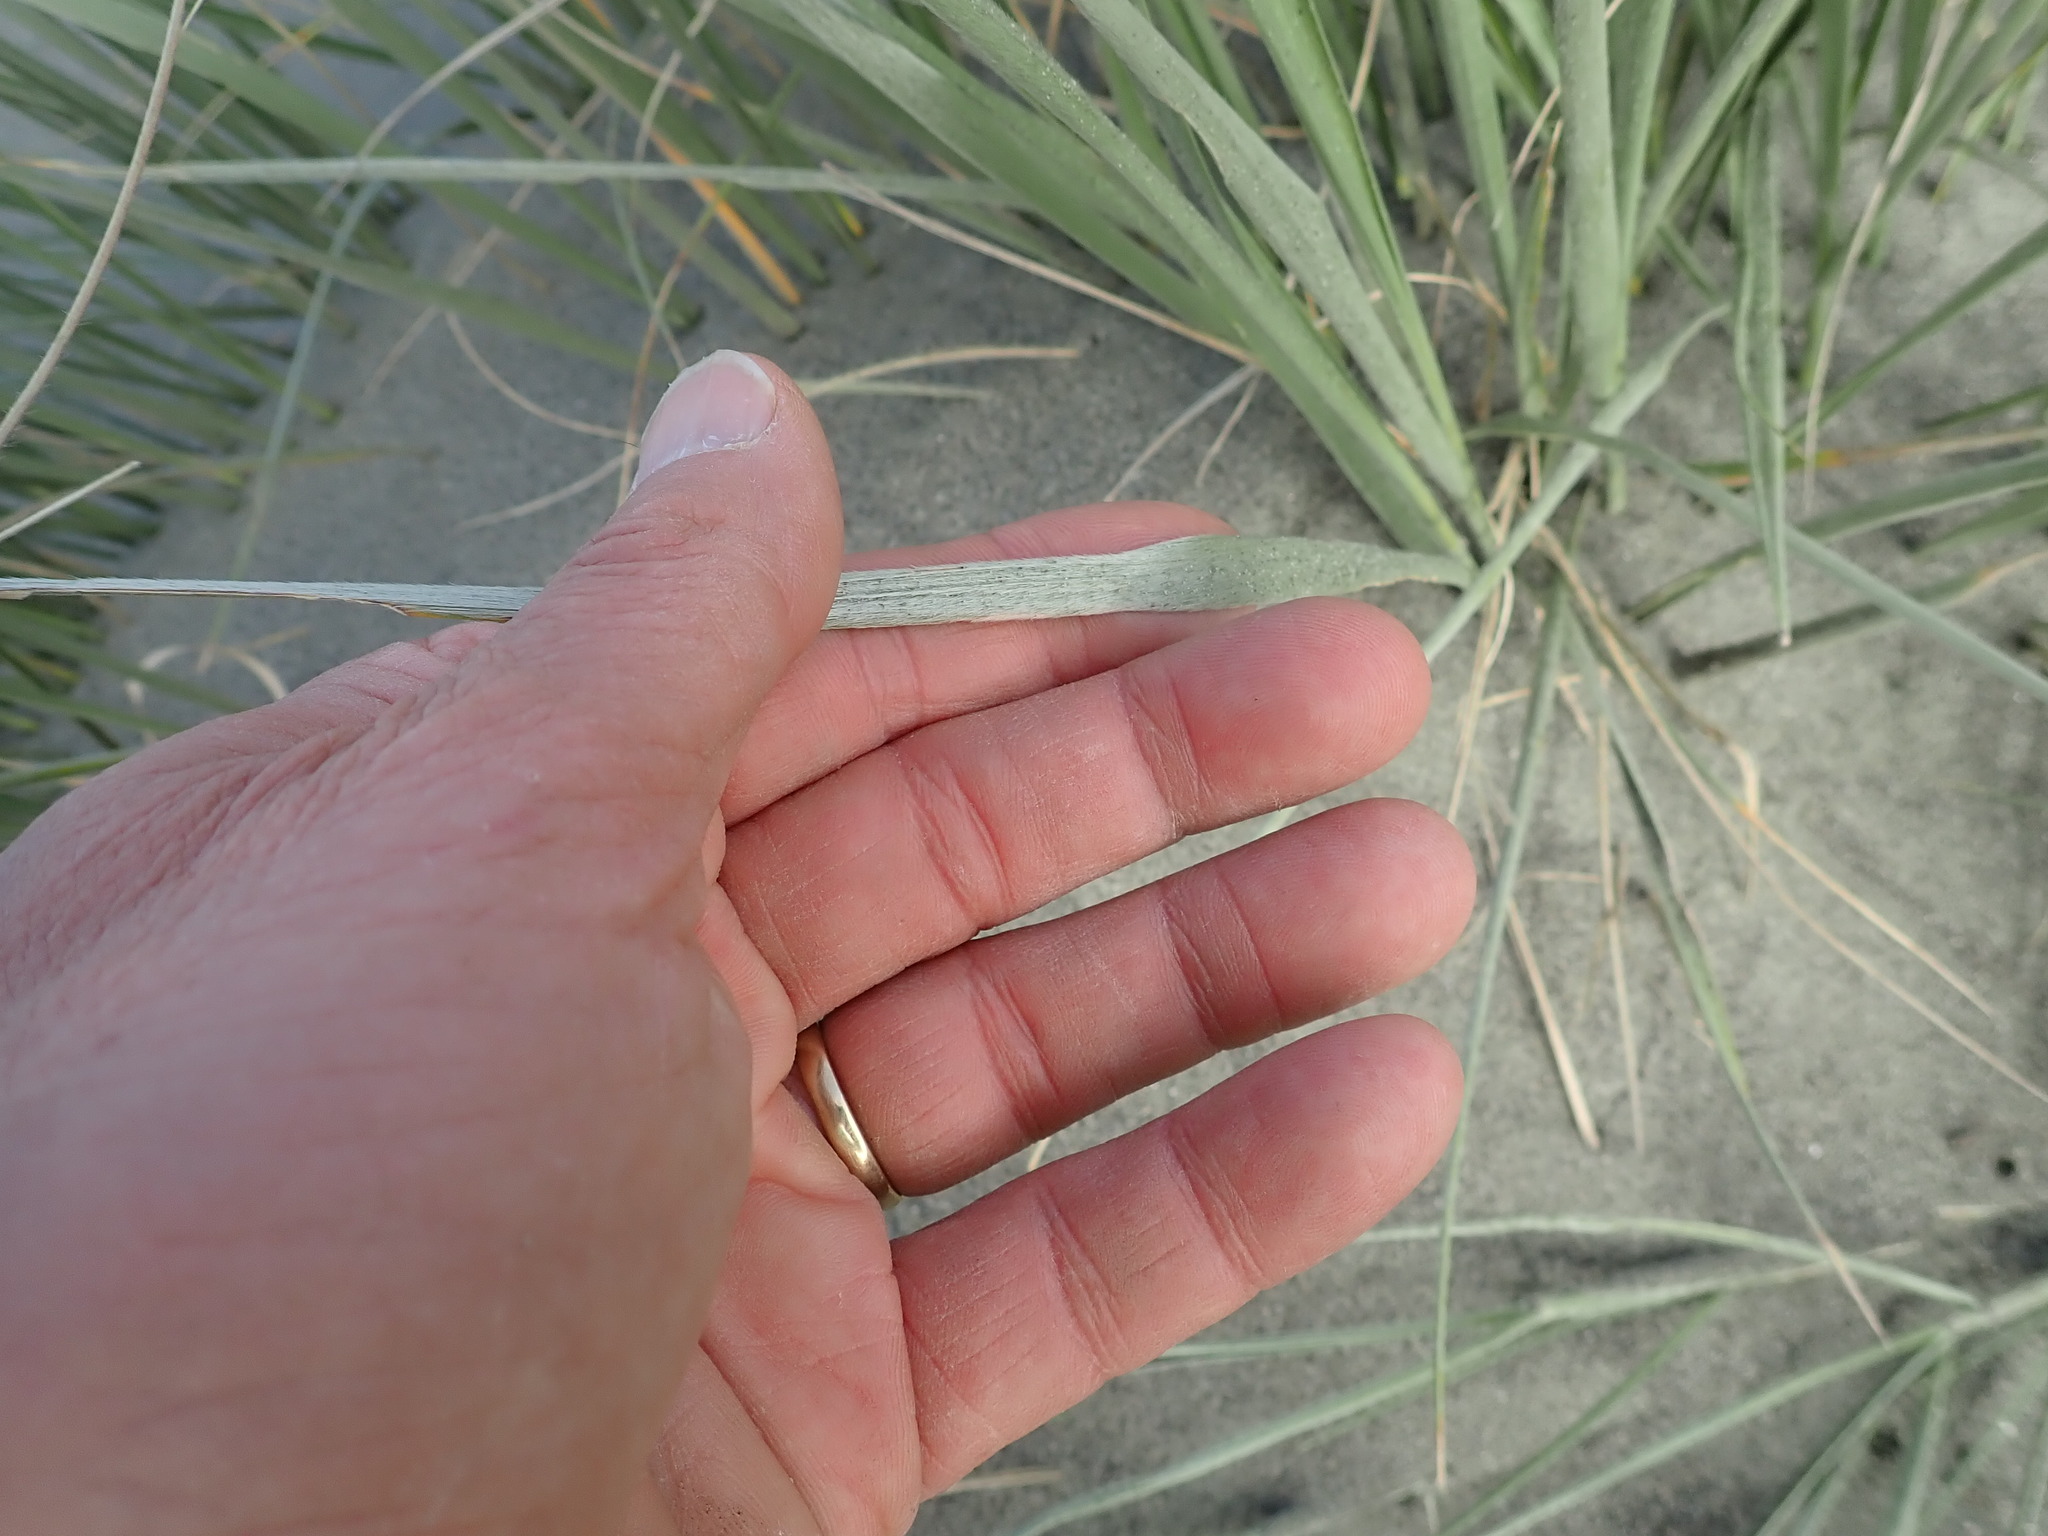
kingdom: Plantae
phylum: Tracheophyta
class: Liliopsida
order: Poales
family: Poaceae
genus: Spinifex
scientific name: Spinifex sericeus
